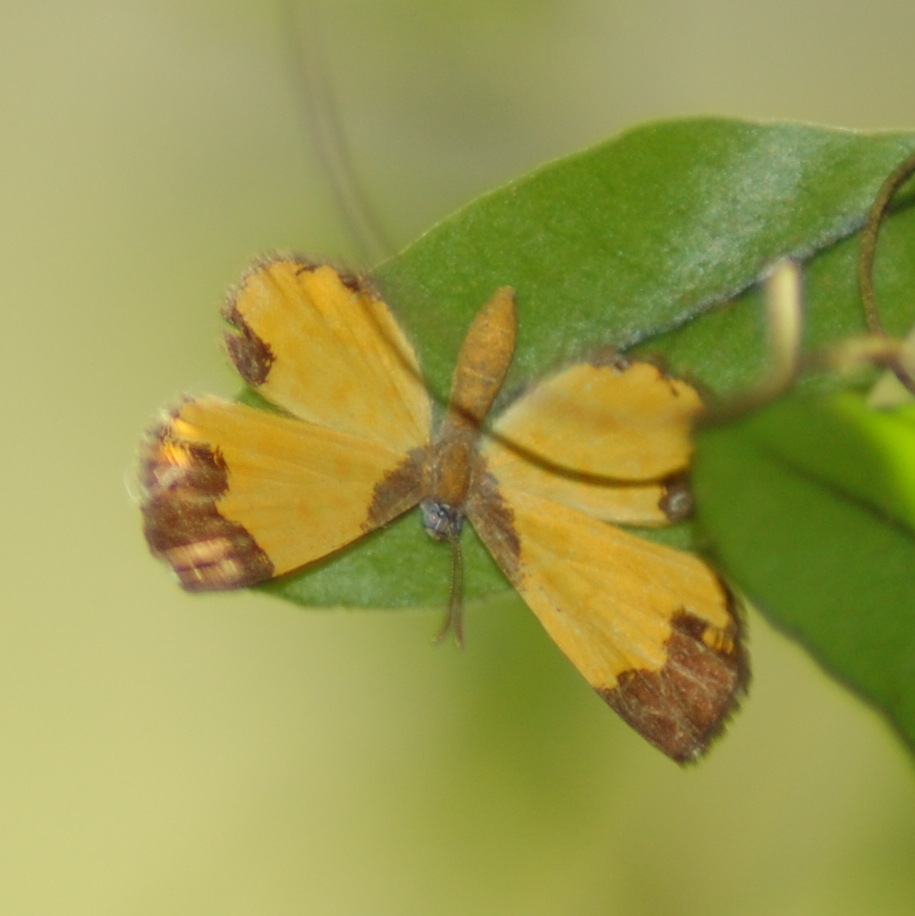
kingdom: Animalia
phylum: Arthropoda
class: Insecta
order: Lepidoptera
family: Riodinidae
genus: Echenais
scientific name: Echenais Adelotypa bolena
